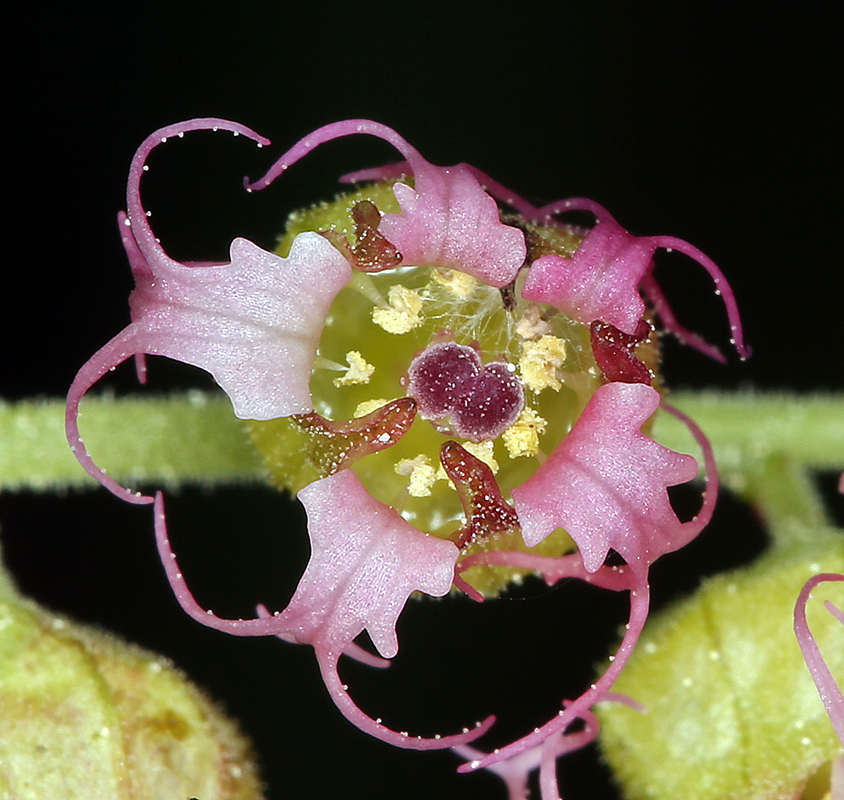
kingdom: Plantae
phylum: Tracheophyta
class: Magnoliopsida
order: Saxifragales
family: Saxifragaceae
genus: Tellima
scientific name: Tellima grandiflora
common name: Fringecups
